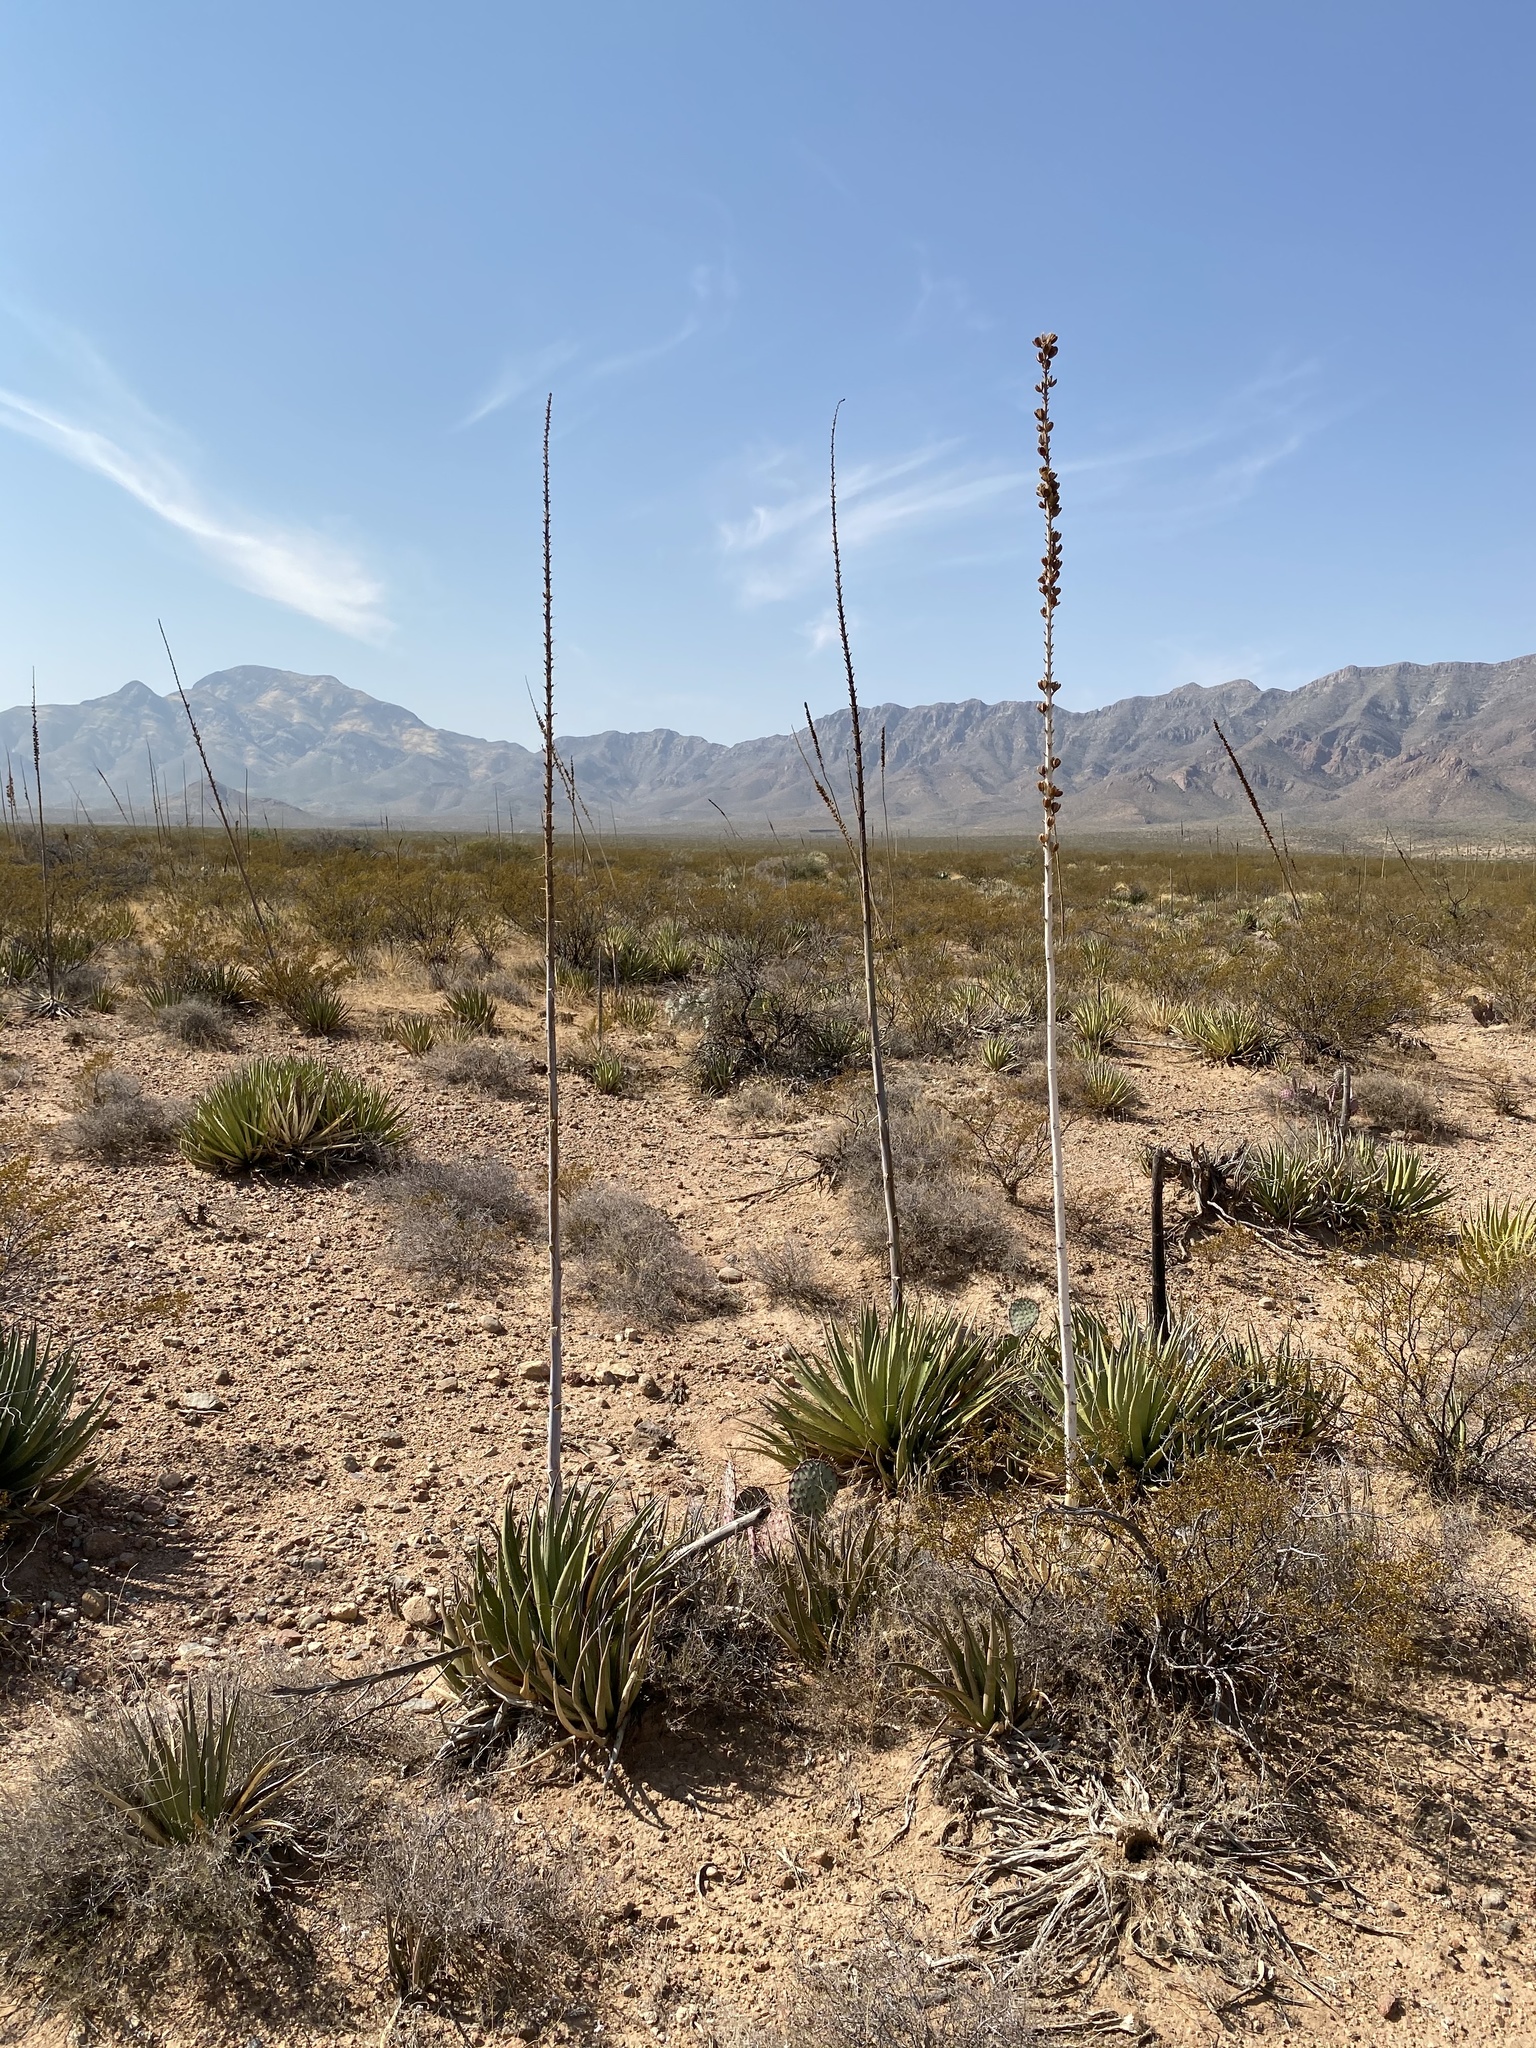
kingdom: Plantae
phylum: Tracheophyta
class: Liliopsida
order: Asparagales
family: Asparagaceae
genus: Agave
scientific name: Agave lechuguilla
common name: Lecheguilla agave
